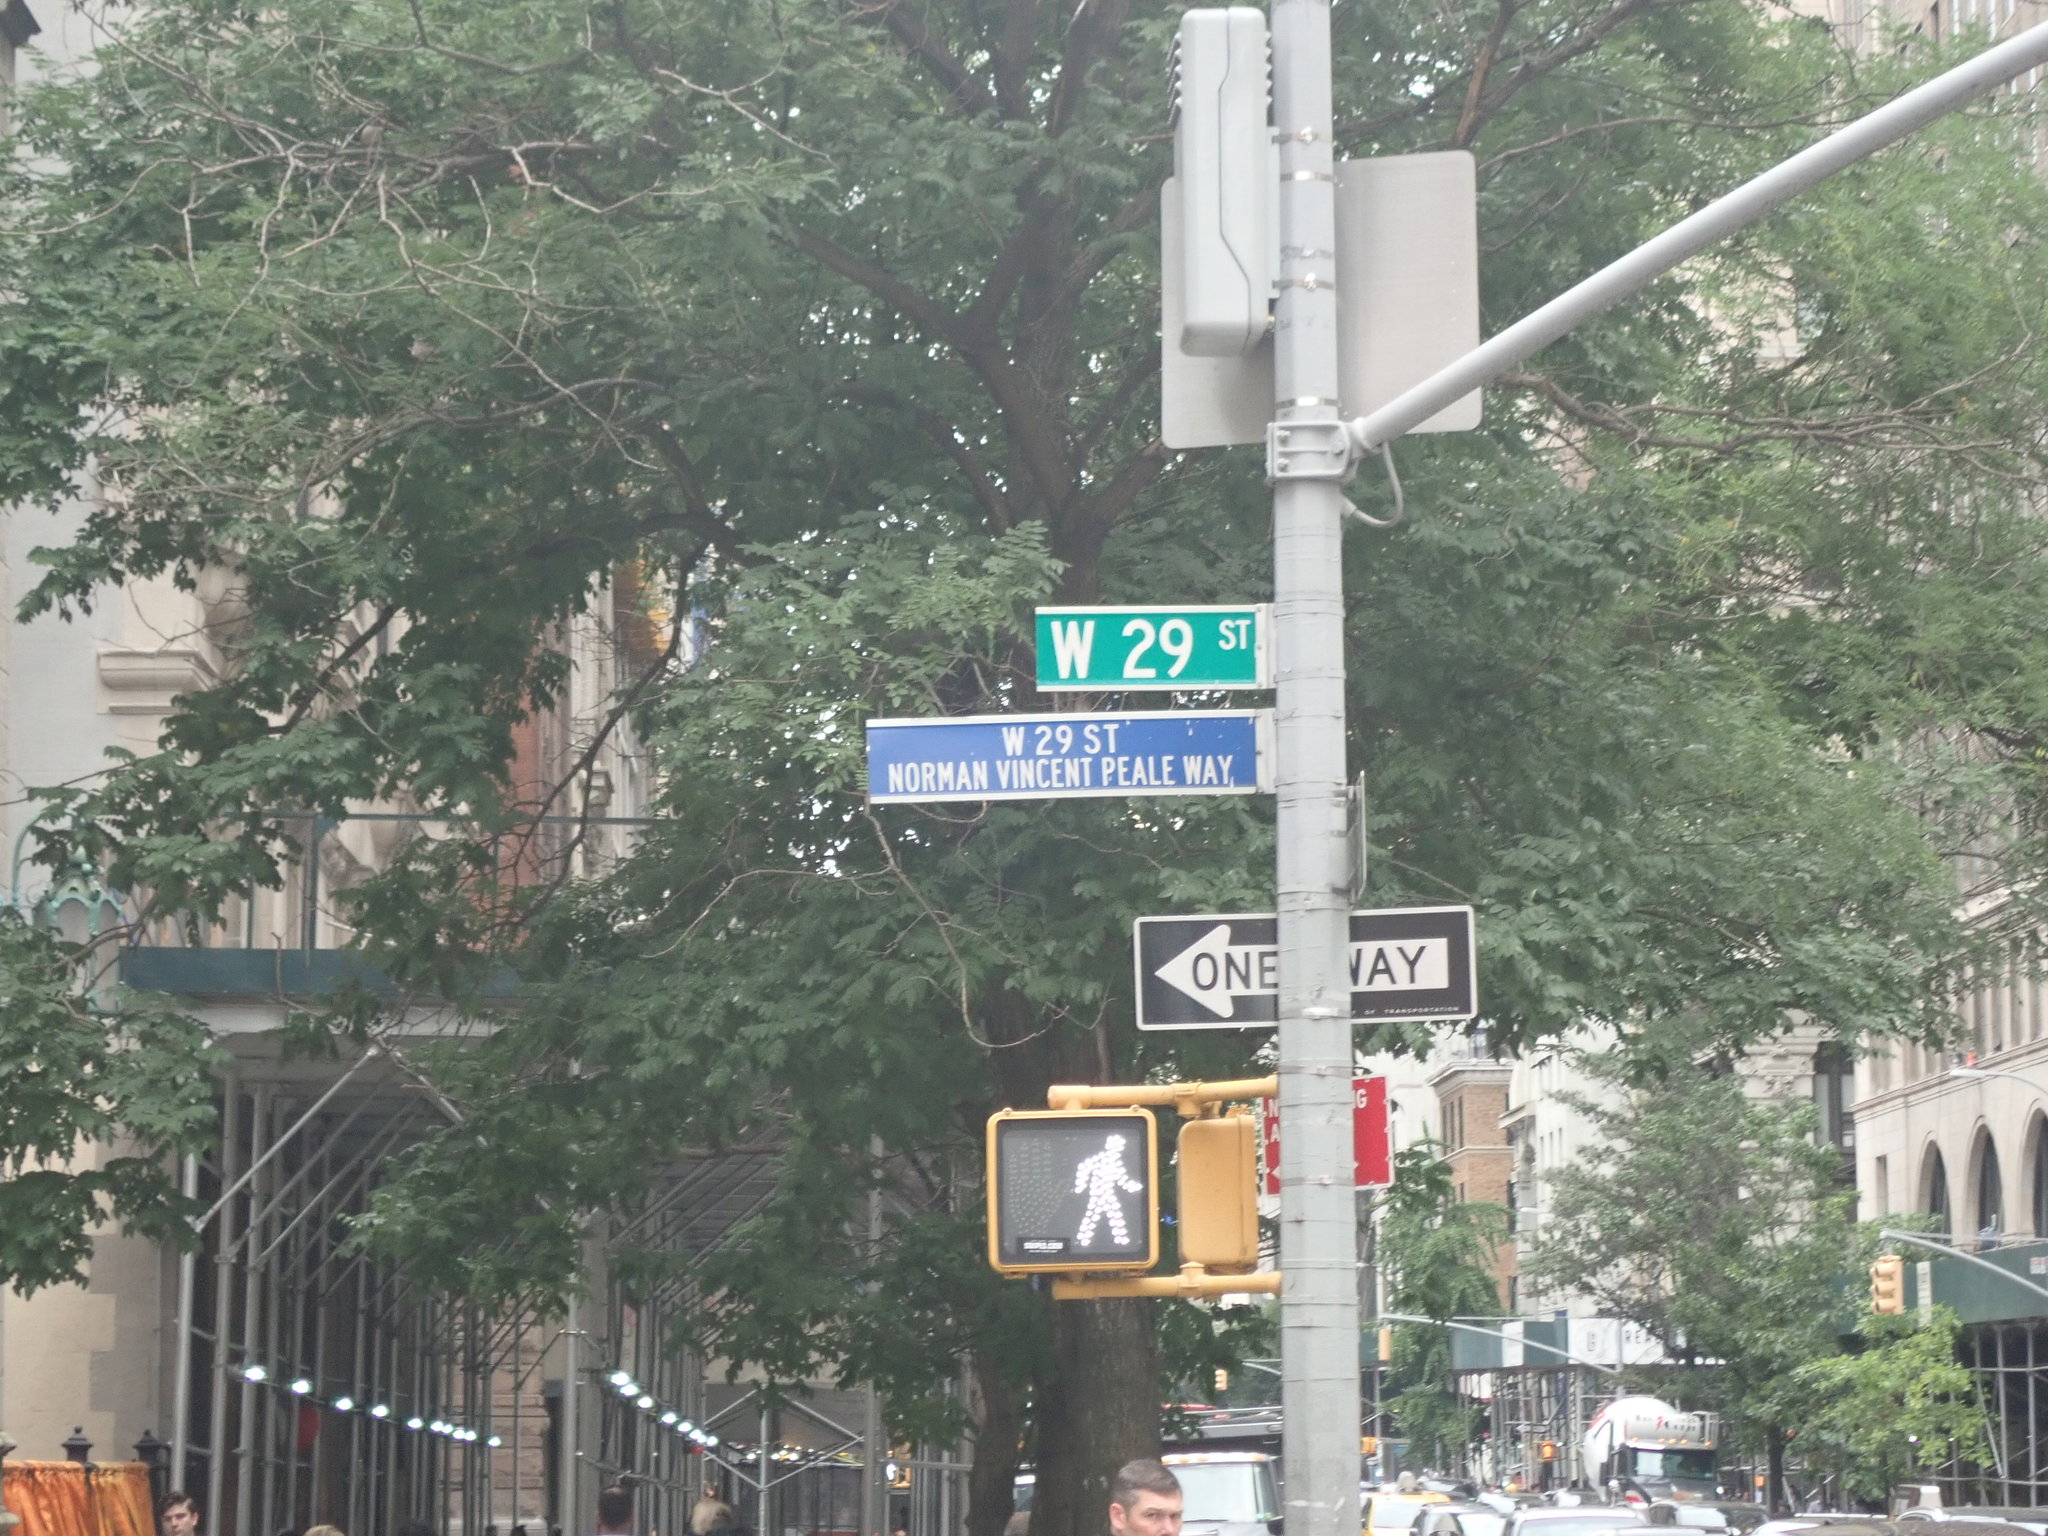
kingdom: Animalia
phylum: Chordata
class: Aves
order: Passeriformes
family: Passeridae
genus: Passer
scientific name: Passer domesticus
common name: House sparrow
